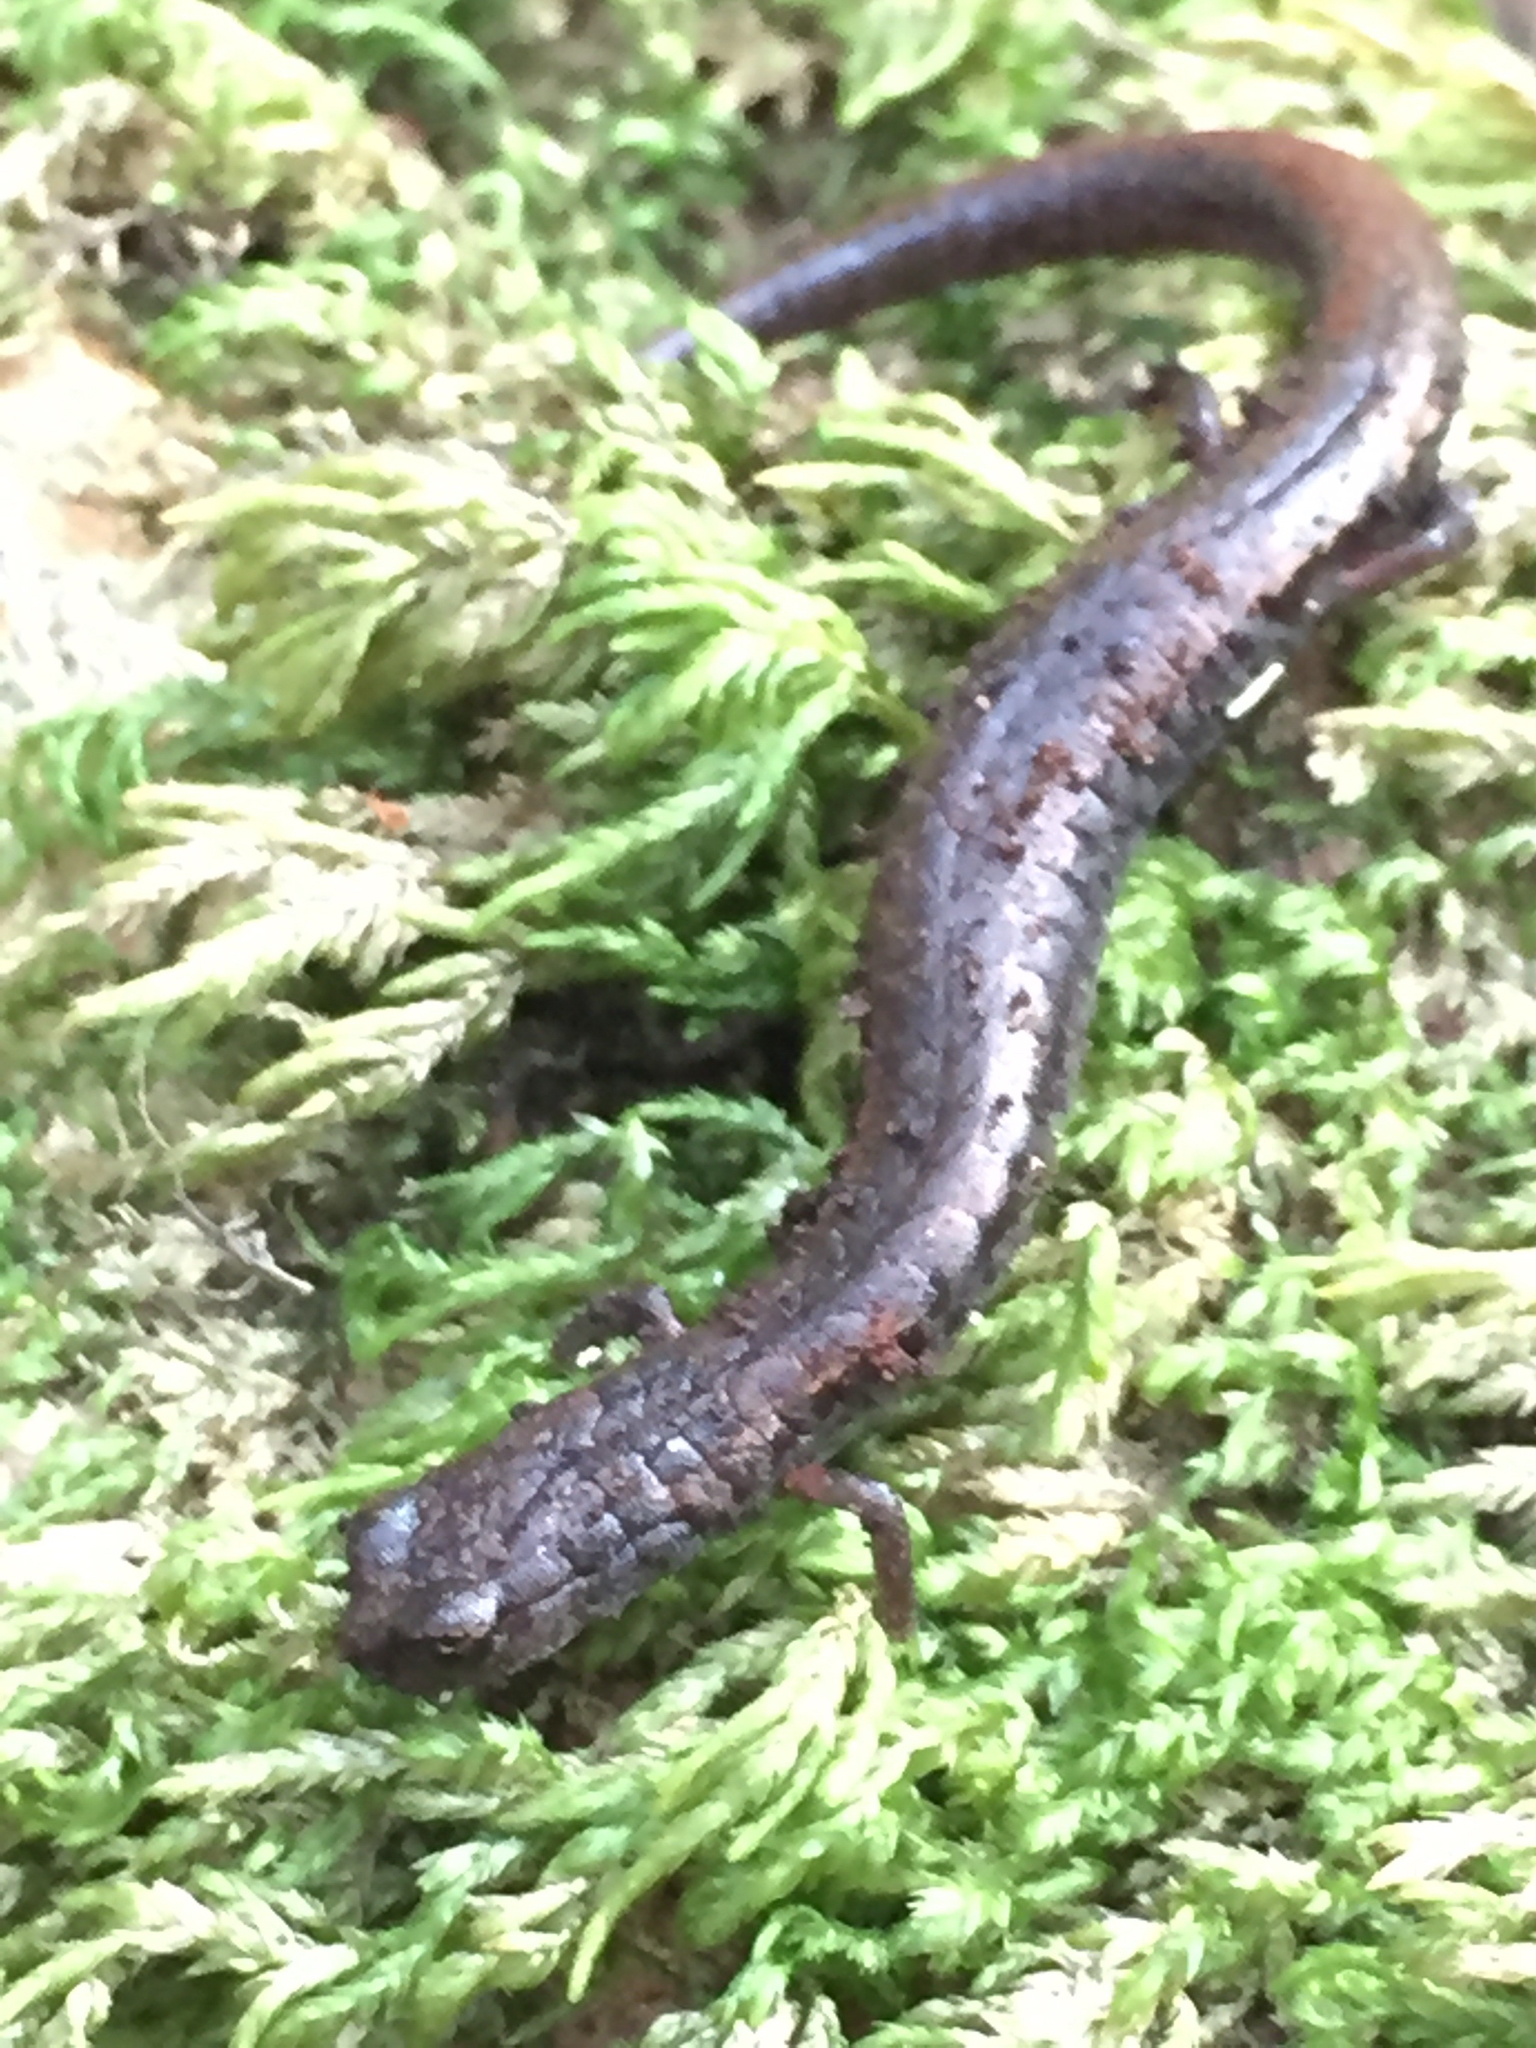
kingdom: Animalia
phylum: Chordata
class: Amphibia
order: Caudata
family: Plethodontidae
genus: Batrachoseps
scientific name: Batrachoseps attenuatus
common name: California slender salamander
